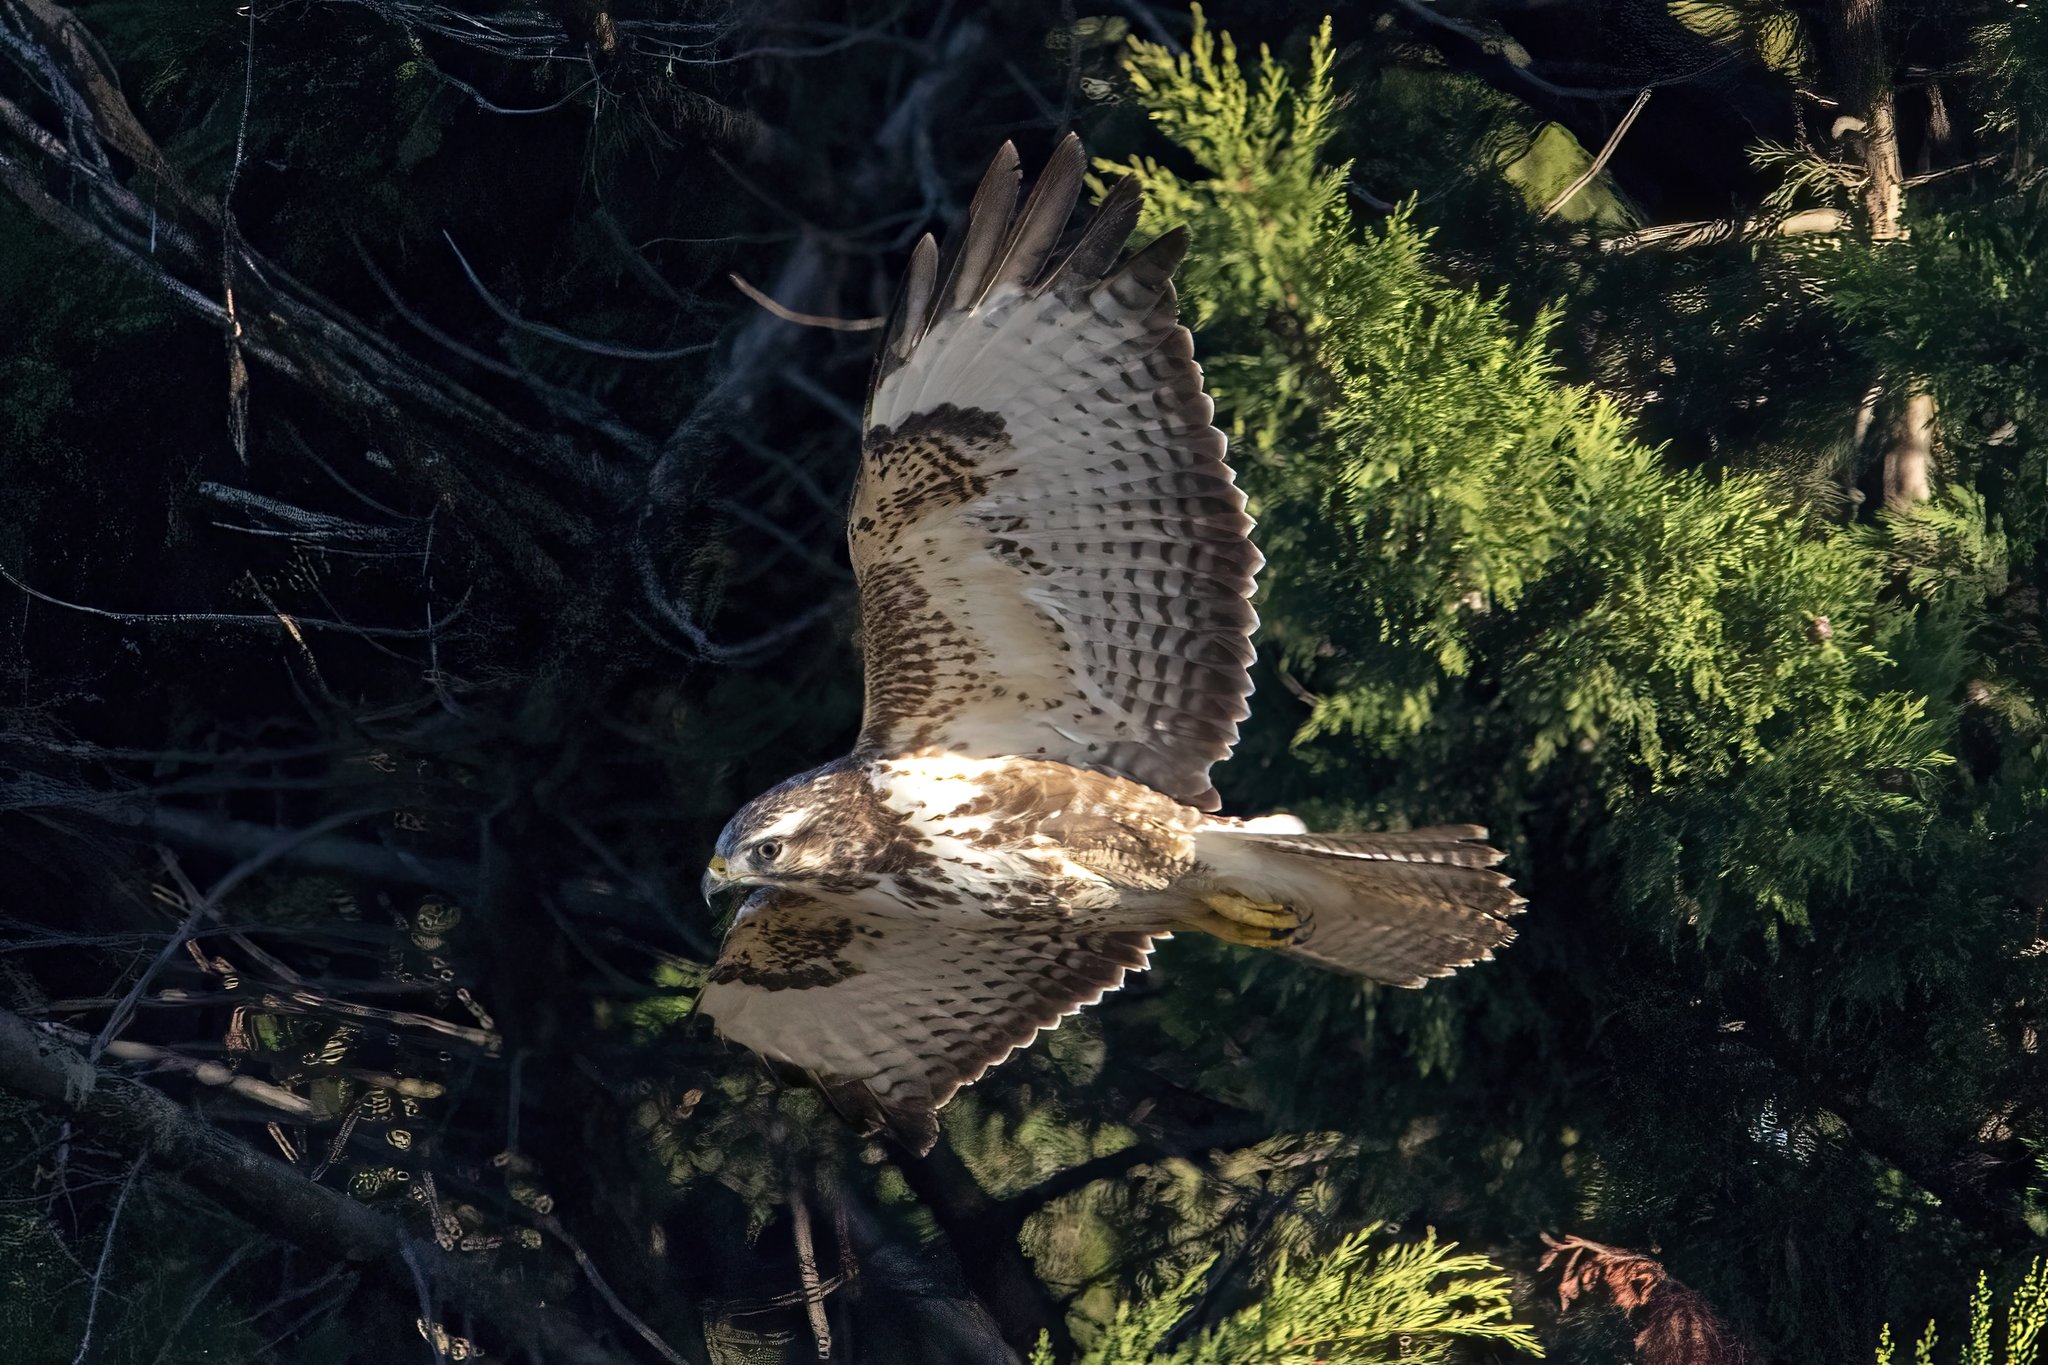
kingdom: Animalia
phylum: Chordata
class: Aves
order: Accipitriformes
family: Accipitridae
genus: Buteo
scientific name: Buteo buteo
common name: Common buzzard
